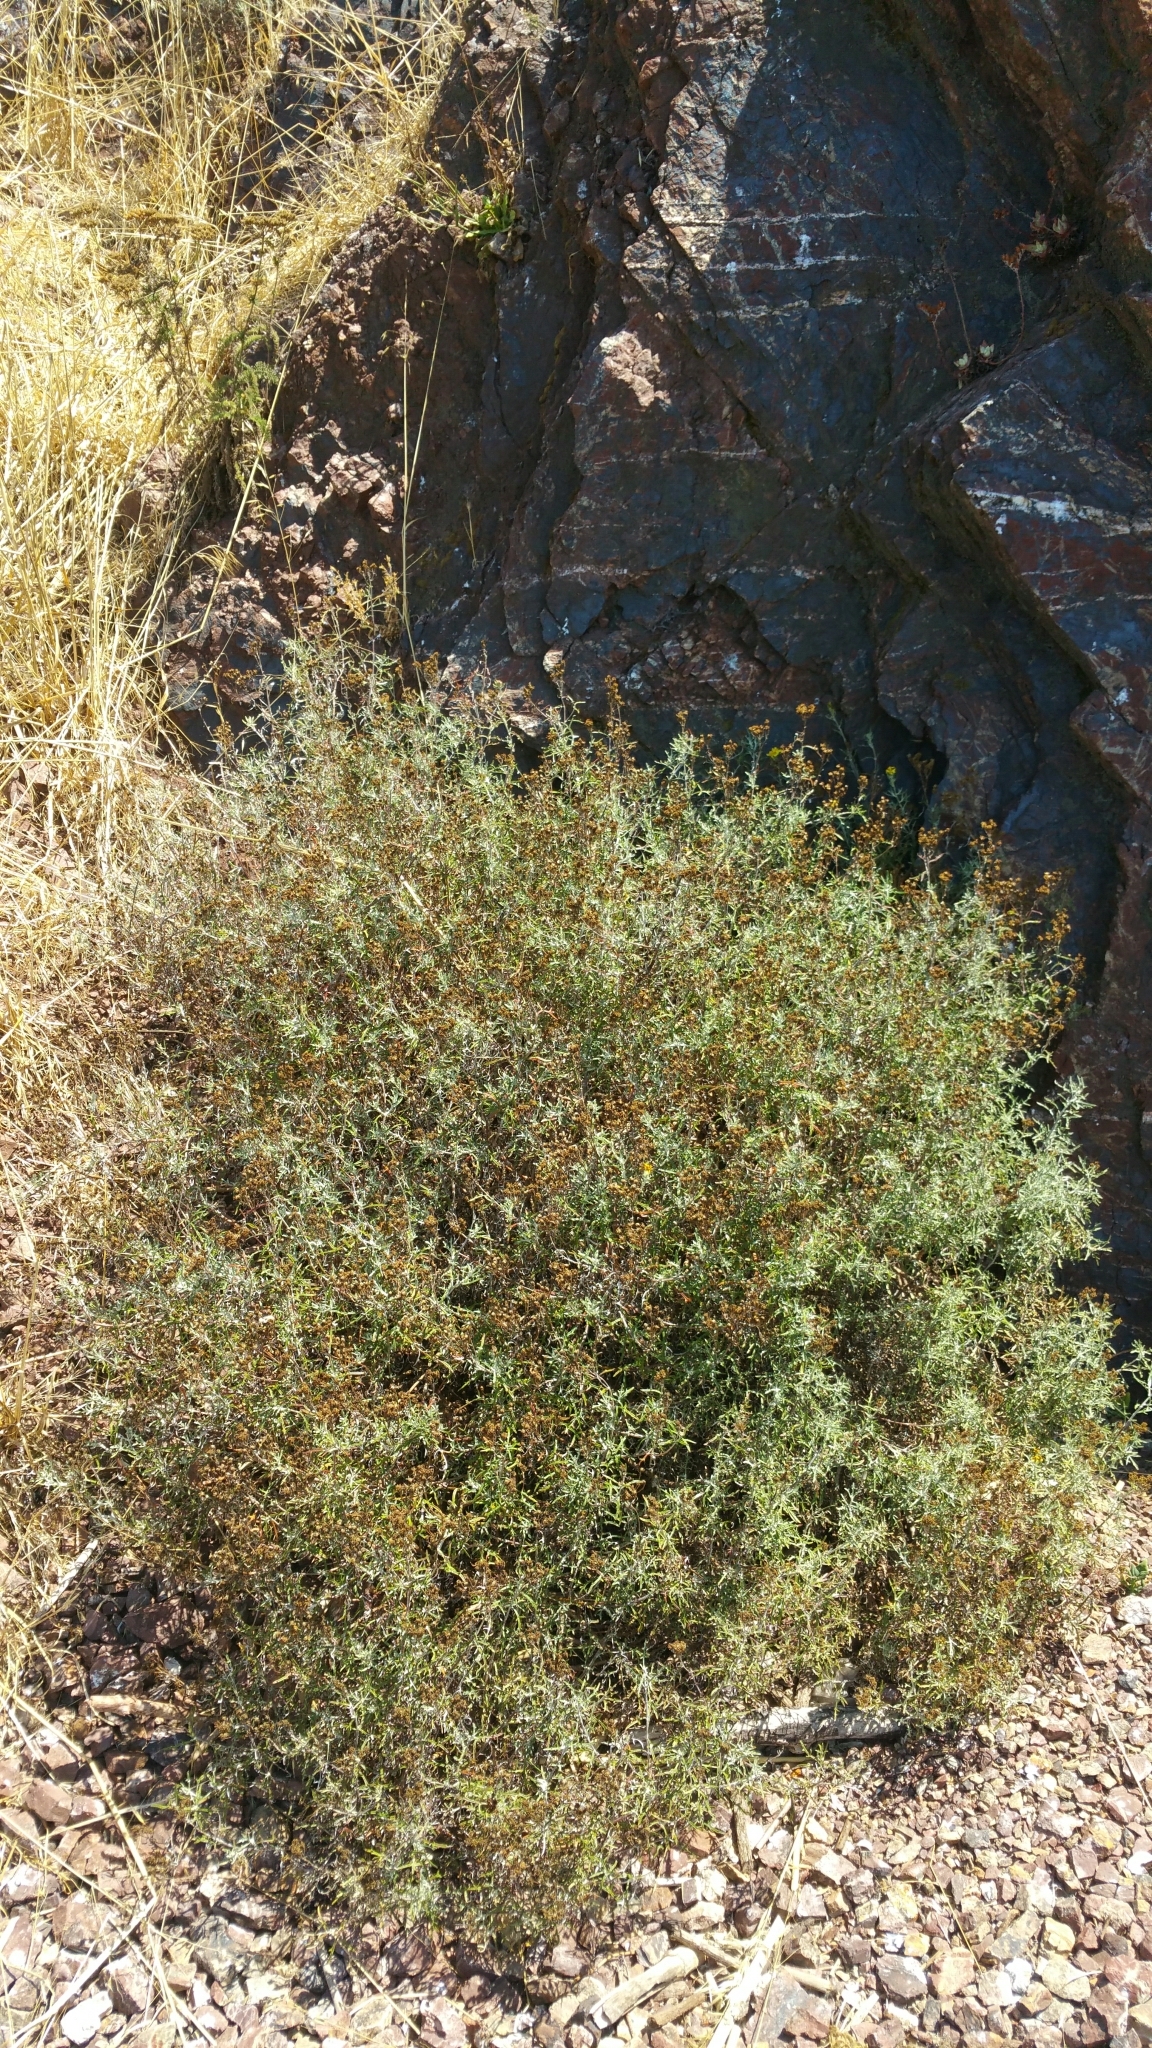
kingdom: Plantae
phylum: Tracheophyta
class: Magnoliopsida
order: Asterales
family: Asteraceae
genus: Eriophyllum
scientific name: Eriophyllum staechadifolium
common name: Lizardtail
